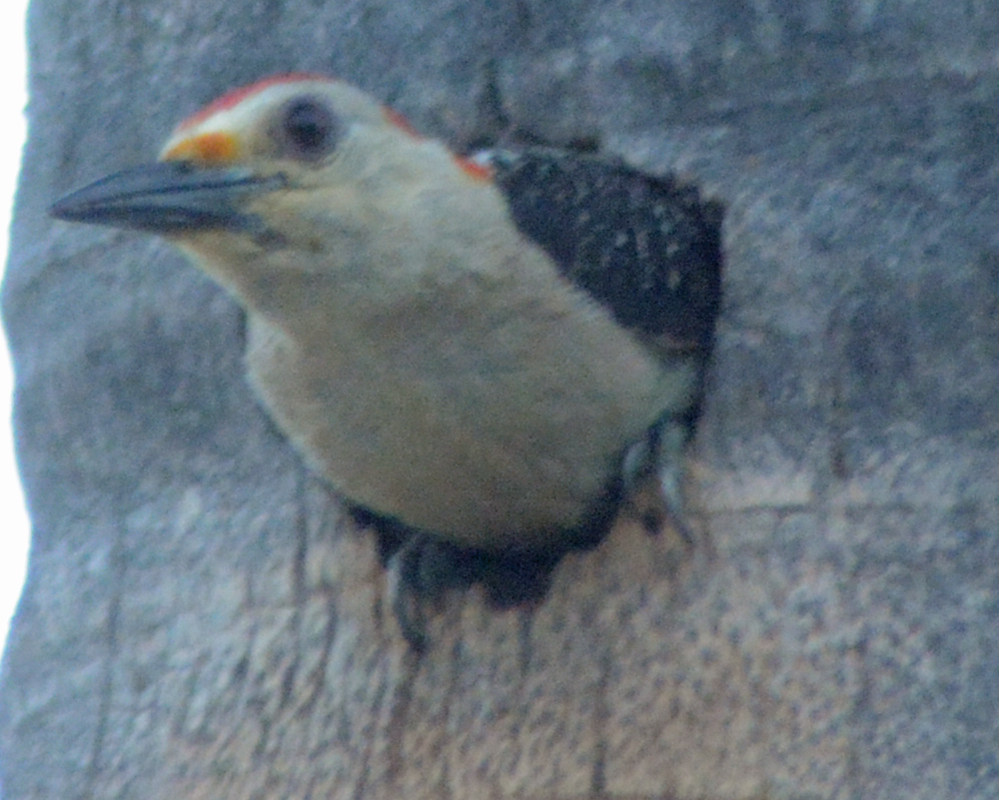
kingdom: Animalia
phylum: Chordata
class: Aves
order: Piciformes
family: Picidae
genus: Melanerpes
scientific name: Melanerpes aurifrons
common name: Golden-fronted woodpecker
